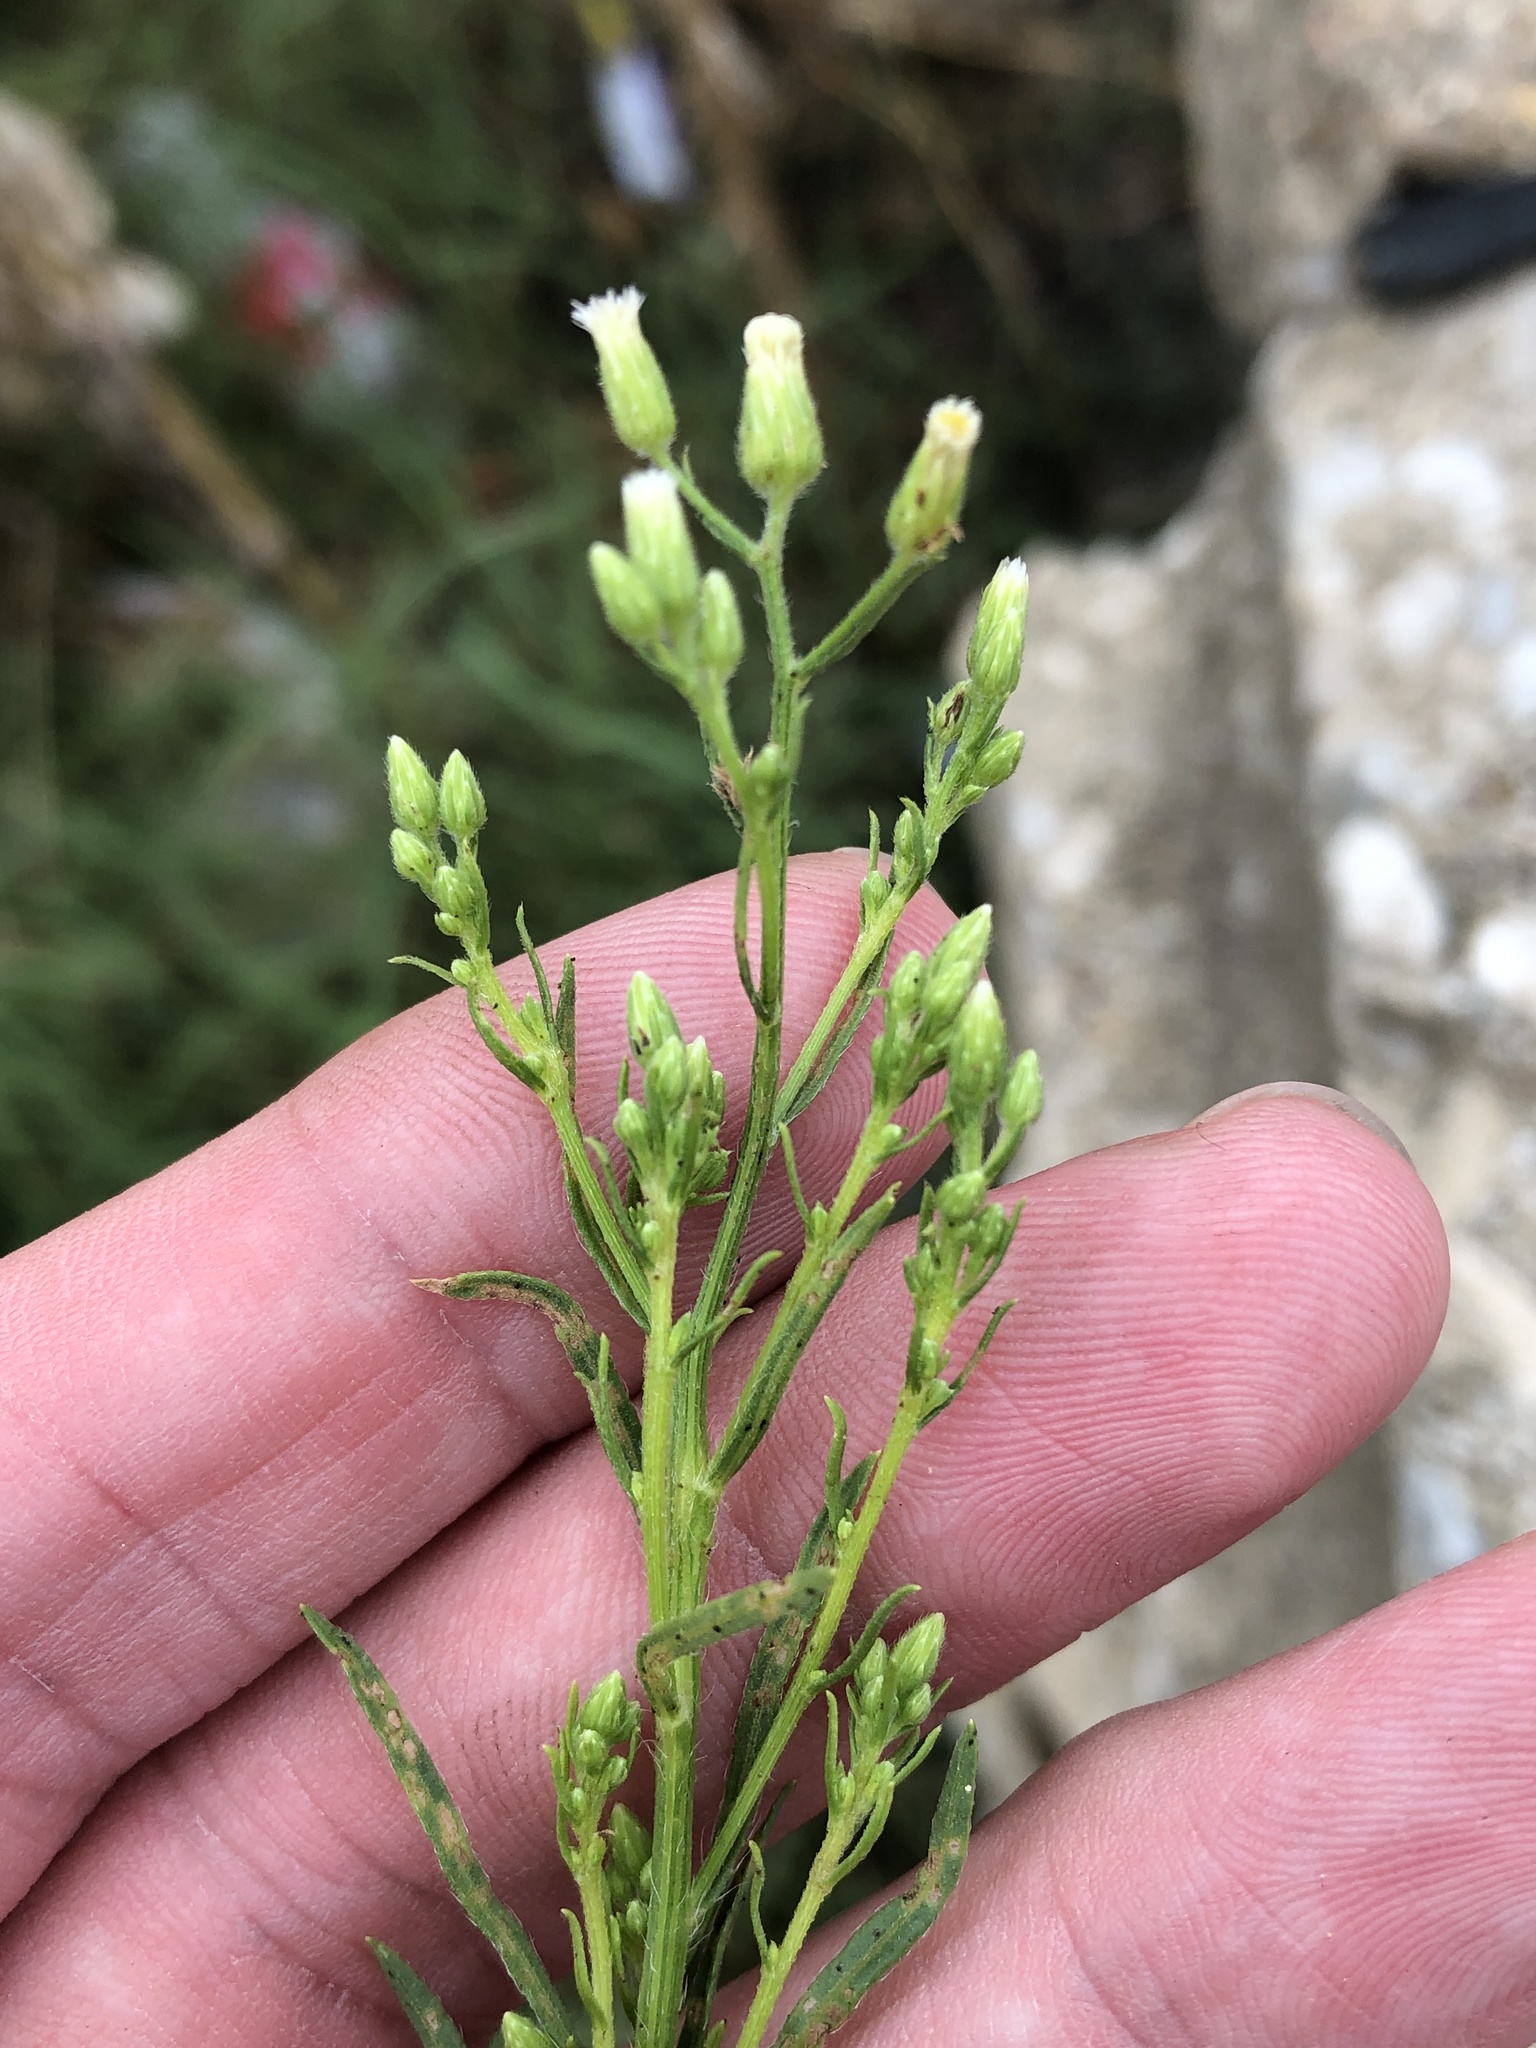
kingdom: Plantae
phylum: Tracheophyta
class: Magnoliopsida
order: Asterales
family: Asteraceae
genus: Erigeron
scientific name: Erigeron canadensis
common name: Canadian fleabane
